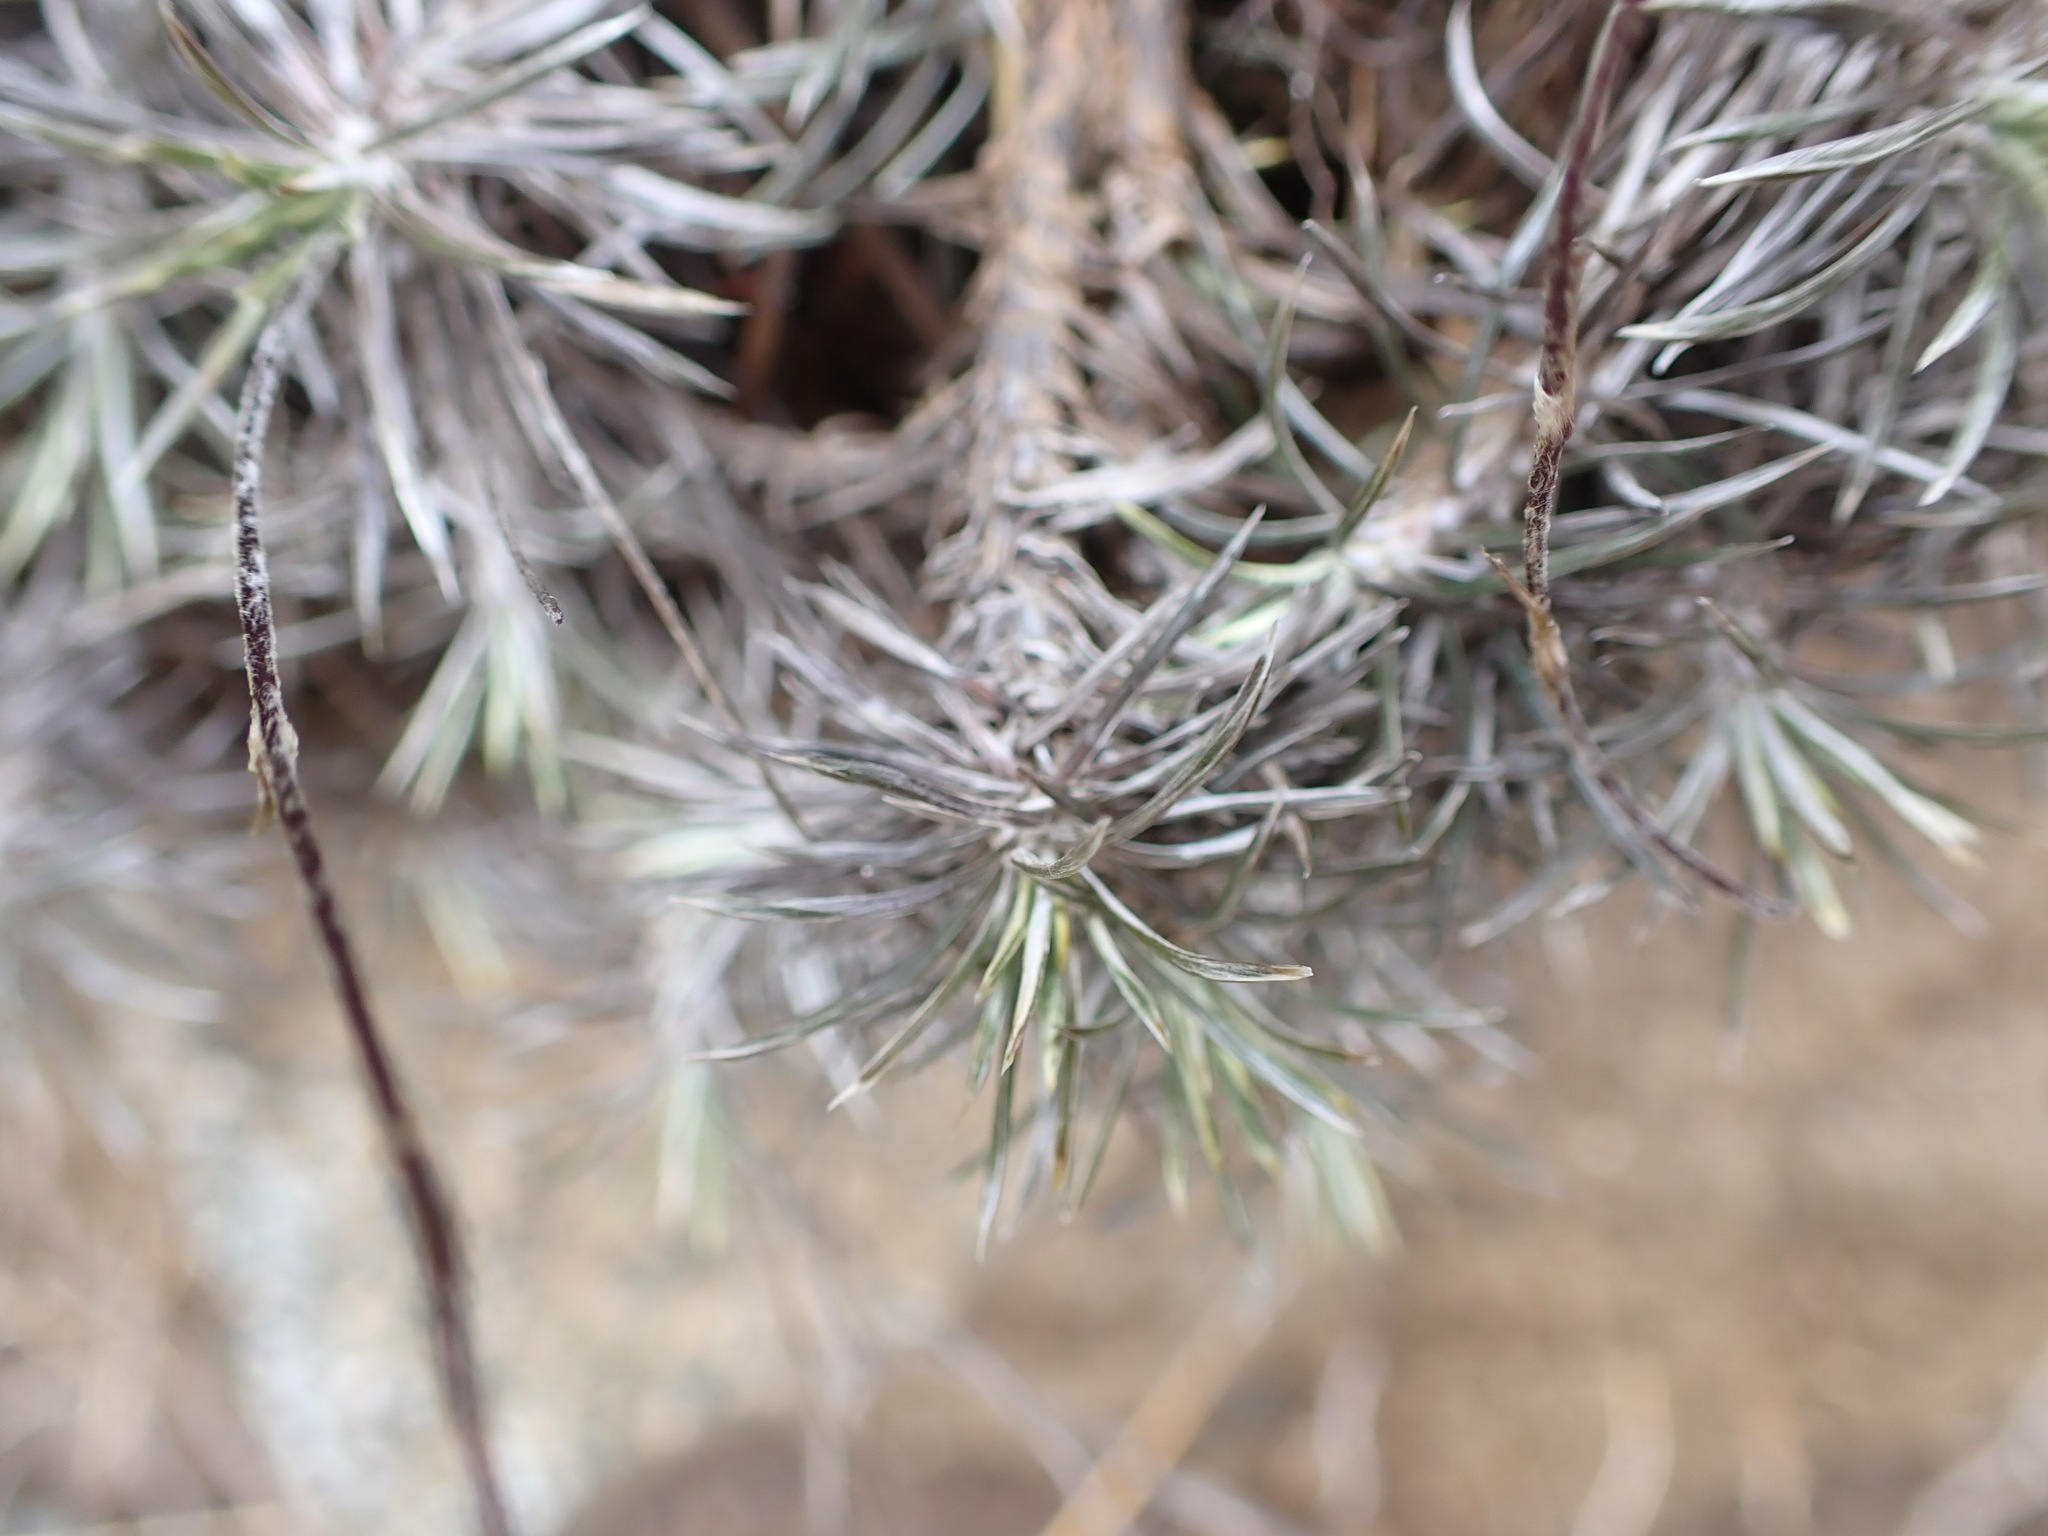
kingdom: Plantae
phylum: Tracheophyta
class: Magnoliopsida
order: Asterales
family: Asteraceae
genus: Celmisia
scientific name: Celmisia laricifolia
